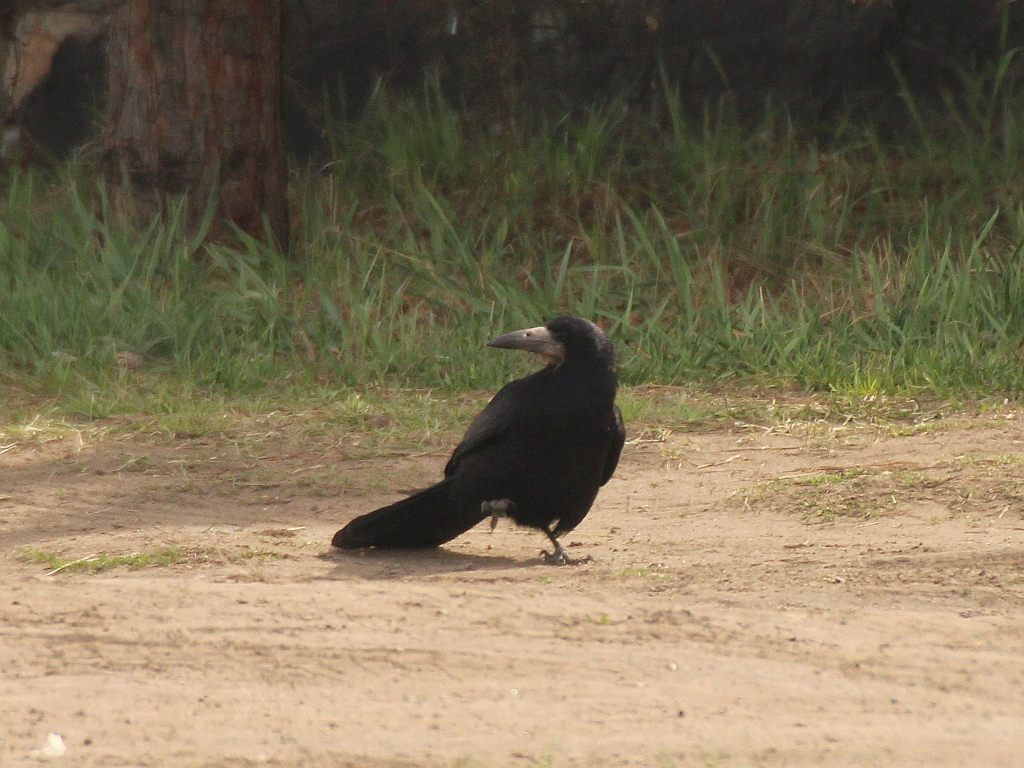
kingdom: Animalia
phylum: Chordata
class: Aves
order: Passeriformes
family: Corvidae
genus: Corvus
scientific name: Corvus frugilegus
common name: Rook
